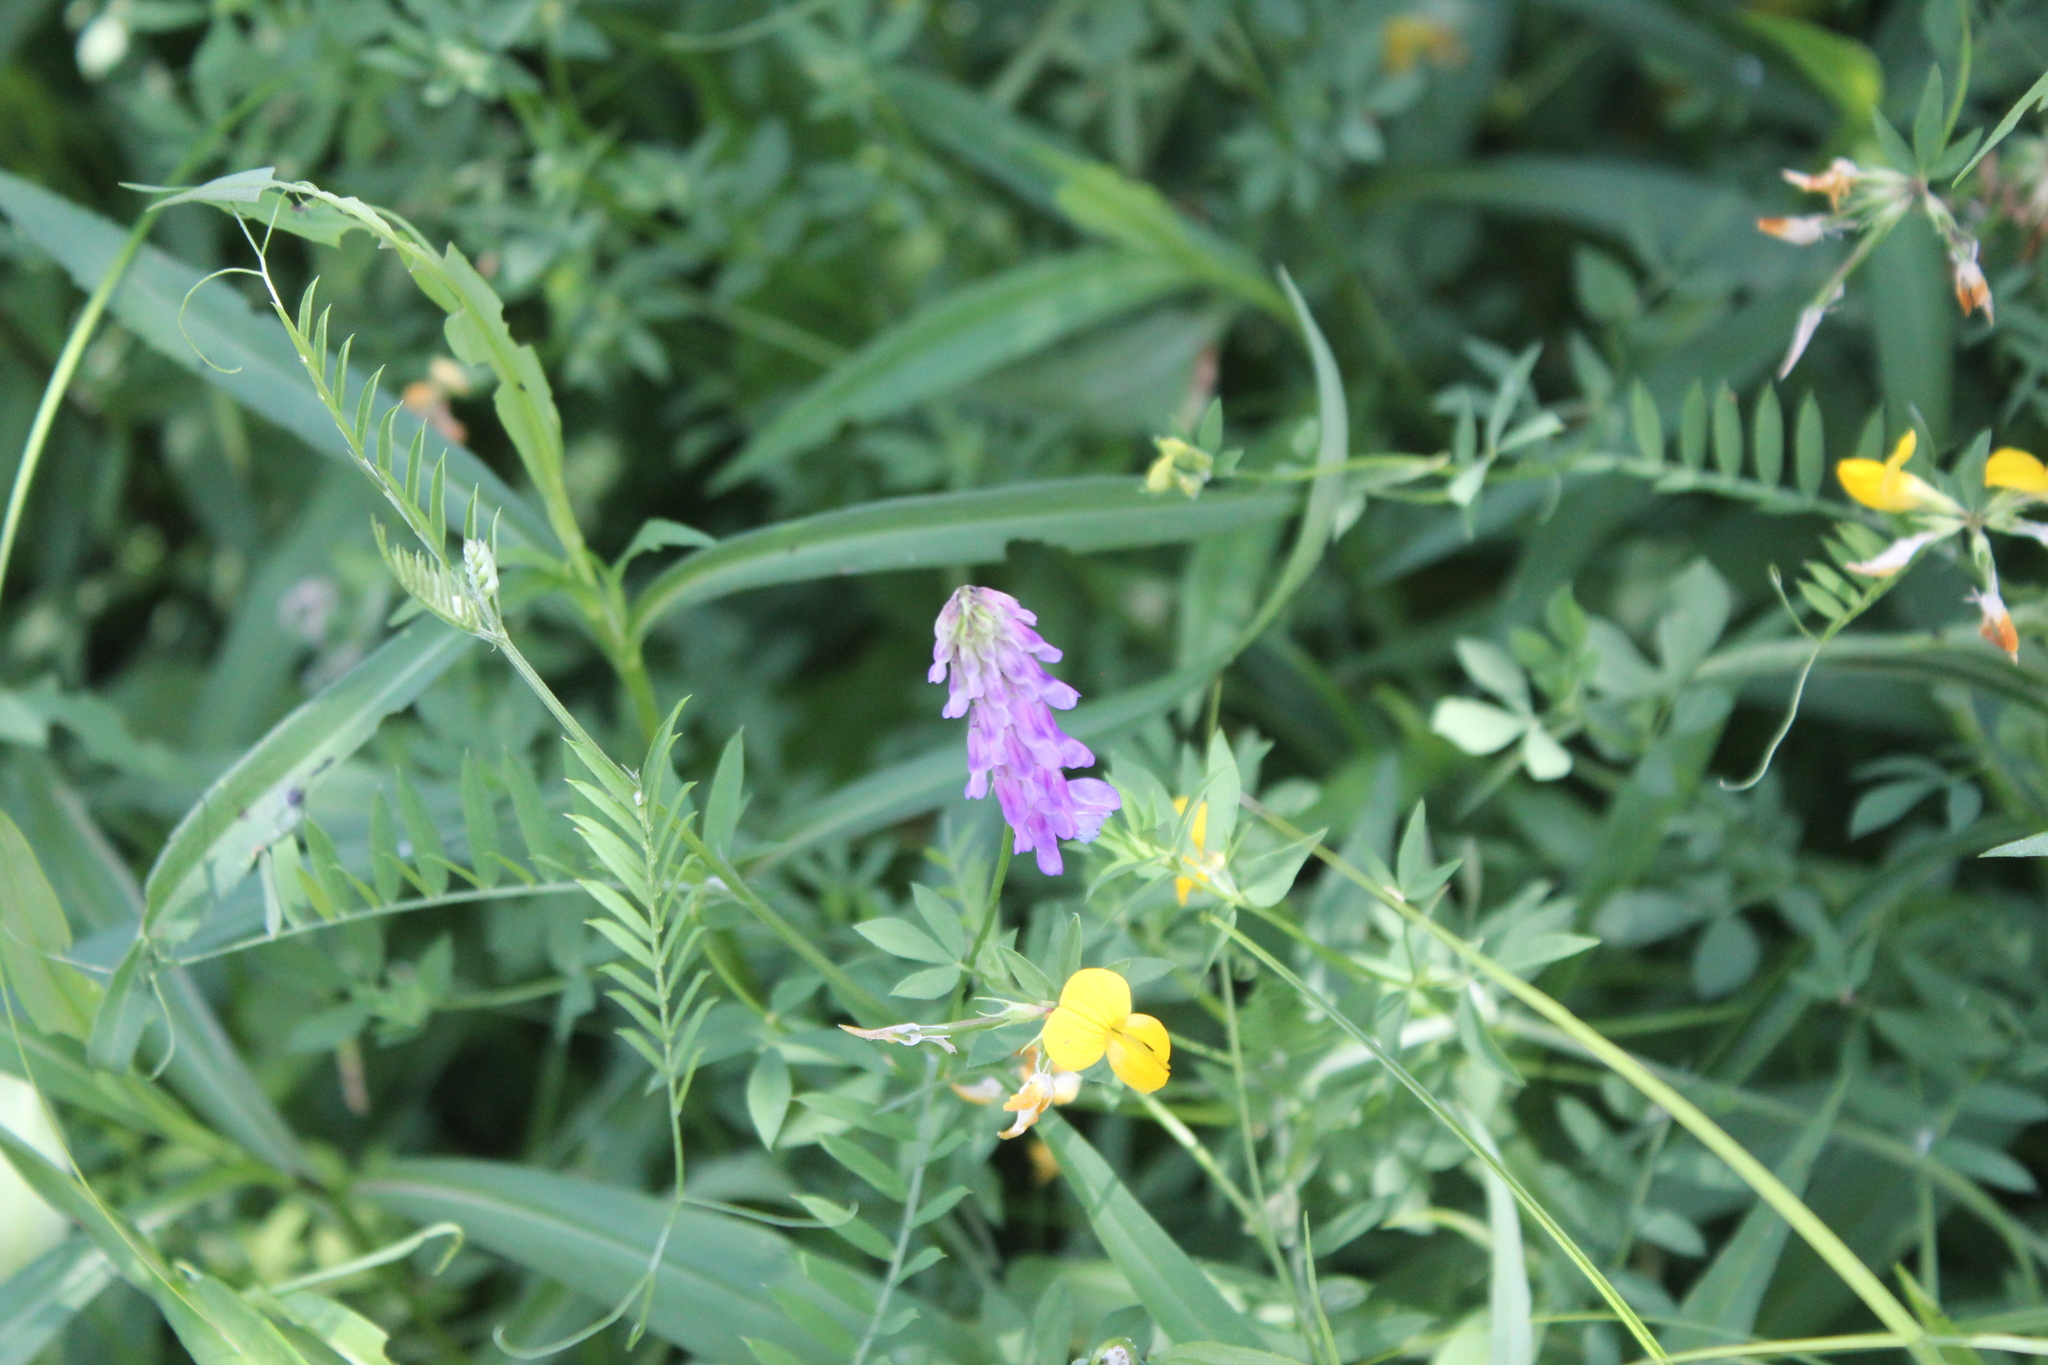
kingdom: Plantae
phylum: Tracheophyta
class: Magnoliopsida
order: Fabales
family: Fabaceae
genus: Vicia
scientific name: Vicia cracca
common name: Bird vetch
